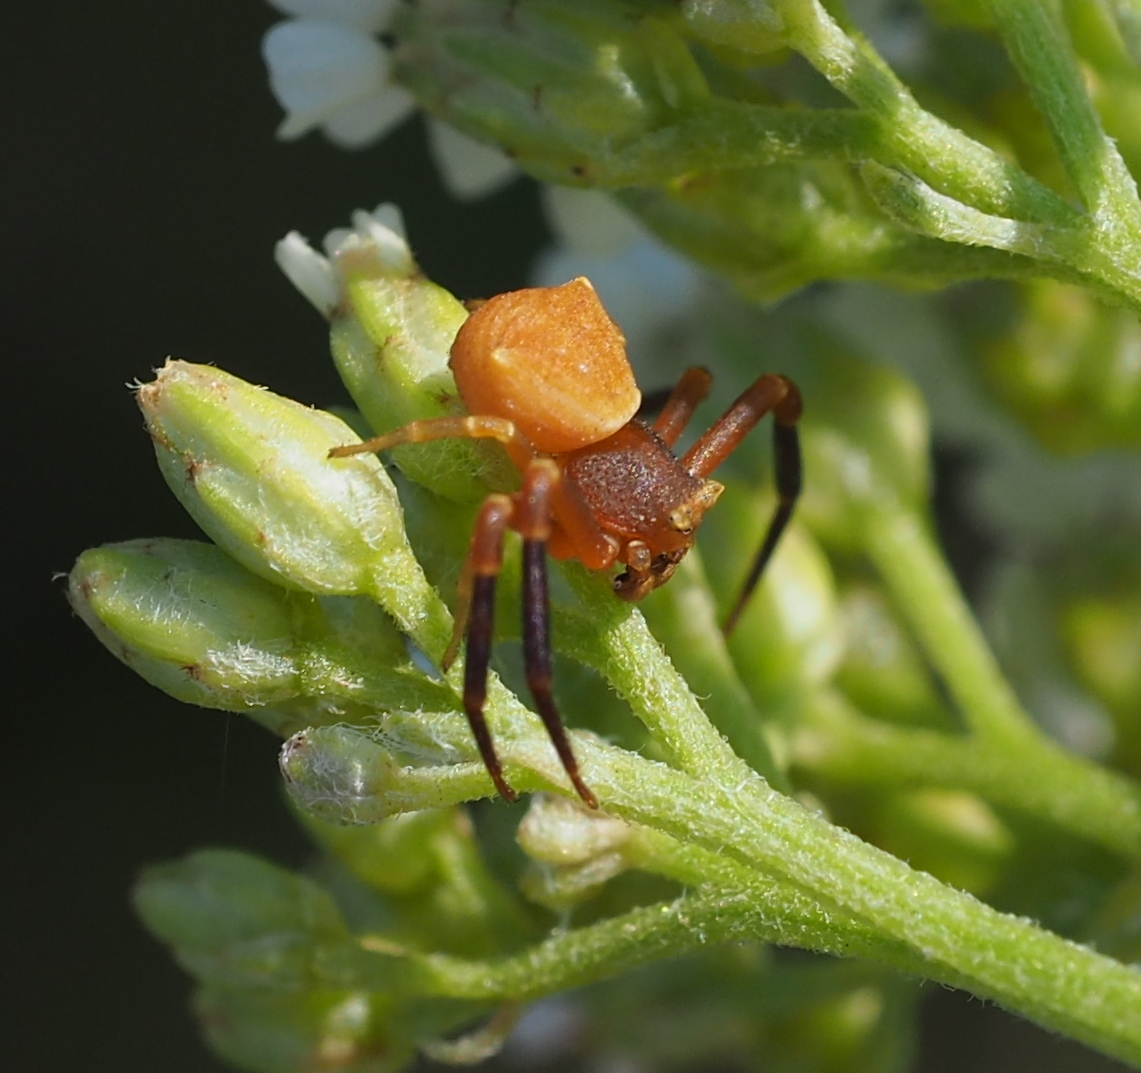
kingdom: Animalia
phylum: Arthropoda
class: Arachnida
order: Araneae
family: Thomisidae
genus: Thomisus
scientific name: Thomisus onustus
